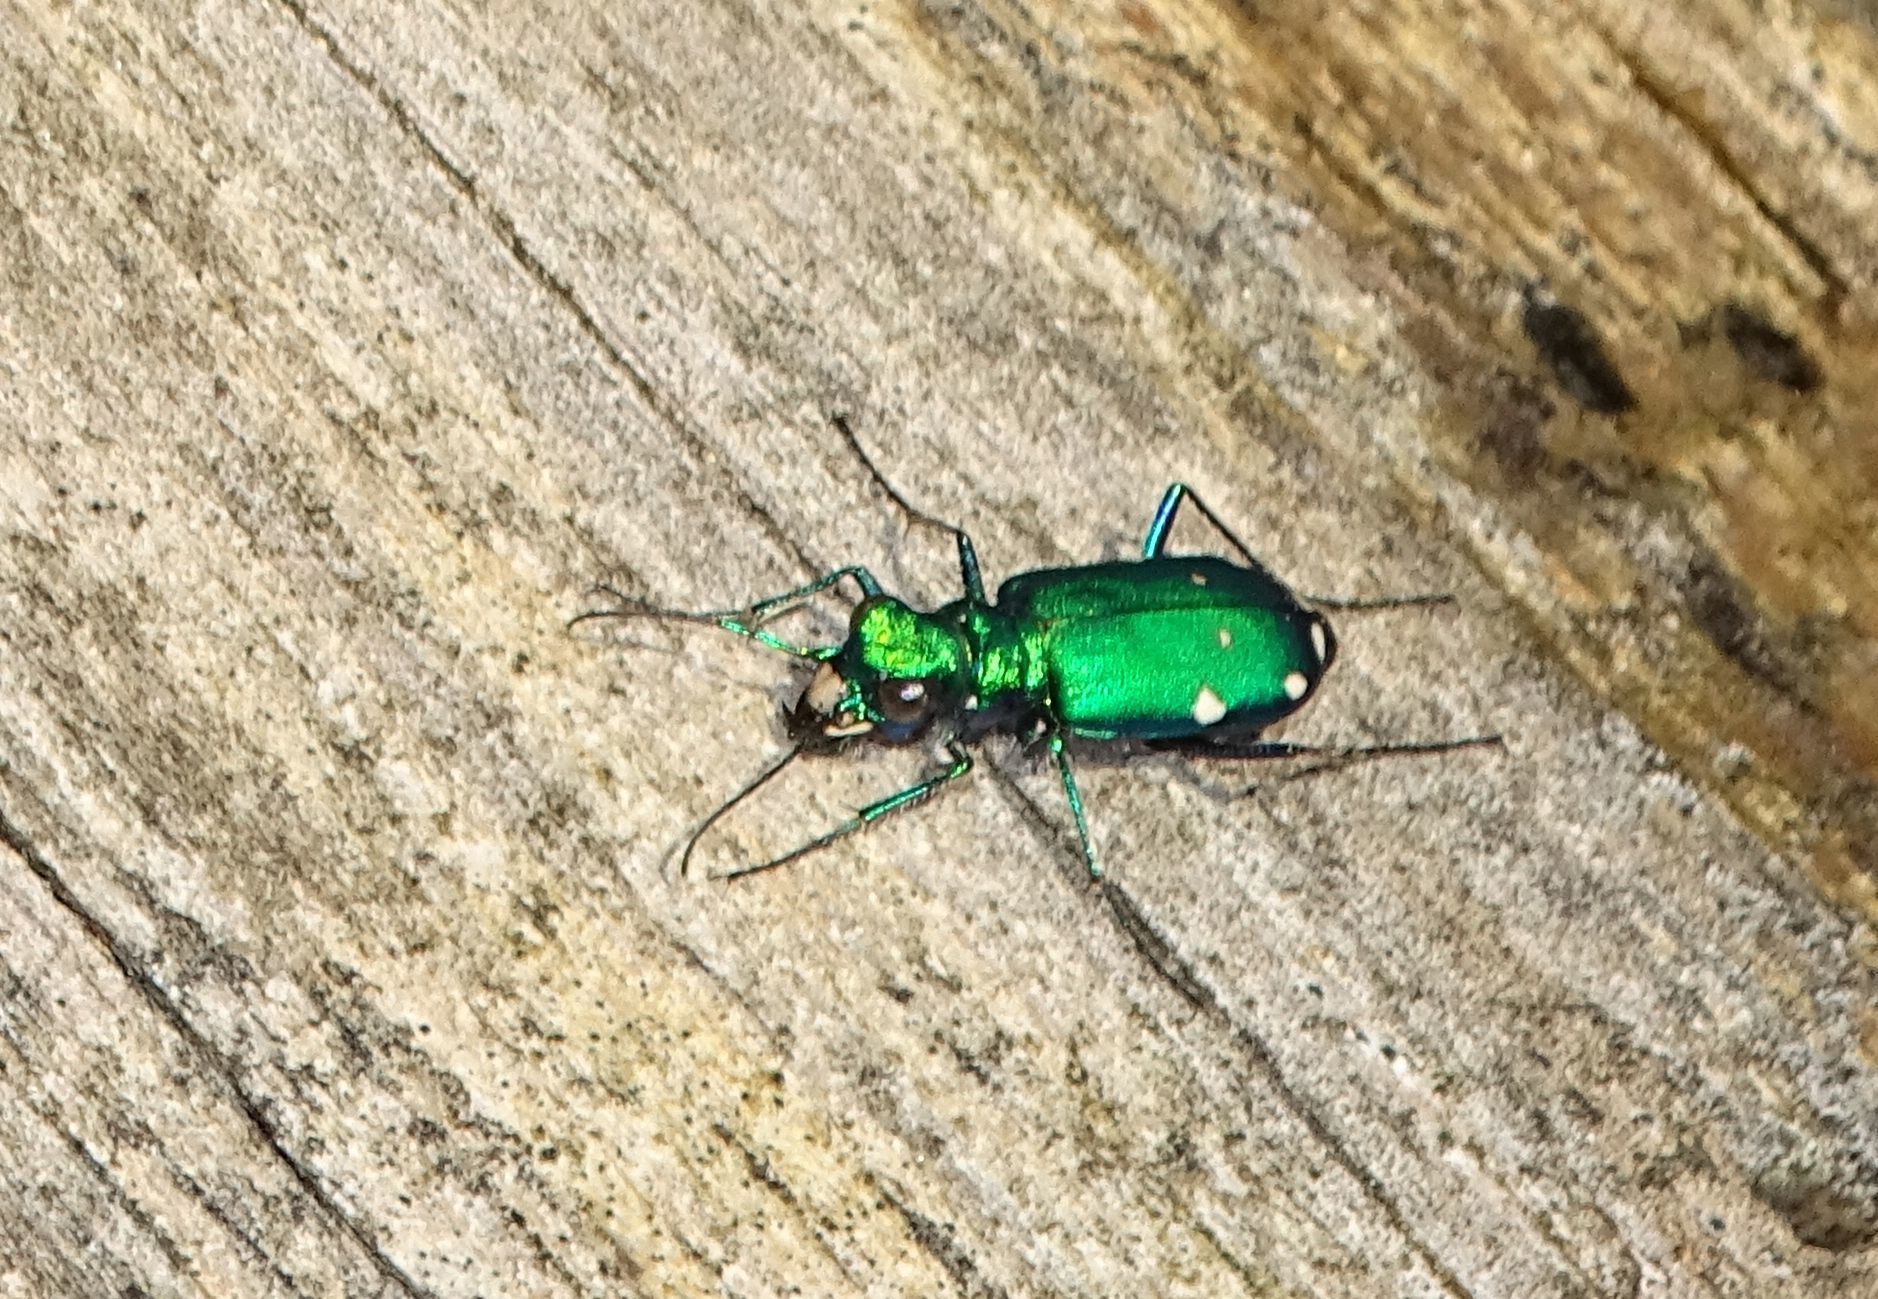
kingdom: Animalia
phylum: Arthropoda
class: Insecta
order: Coleoptera
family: Carabidae
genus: Cicindela
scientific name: Cicindela sexguttata
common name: Six-spotted tiger beetle
